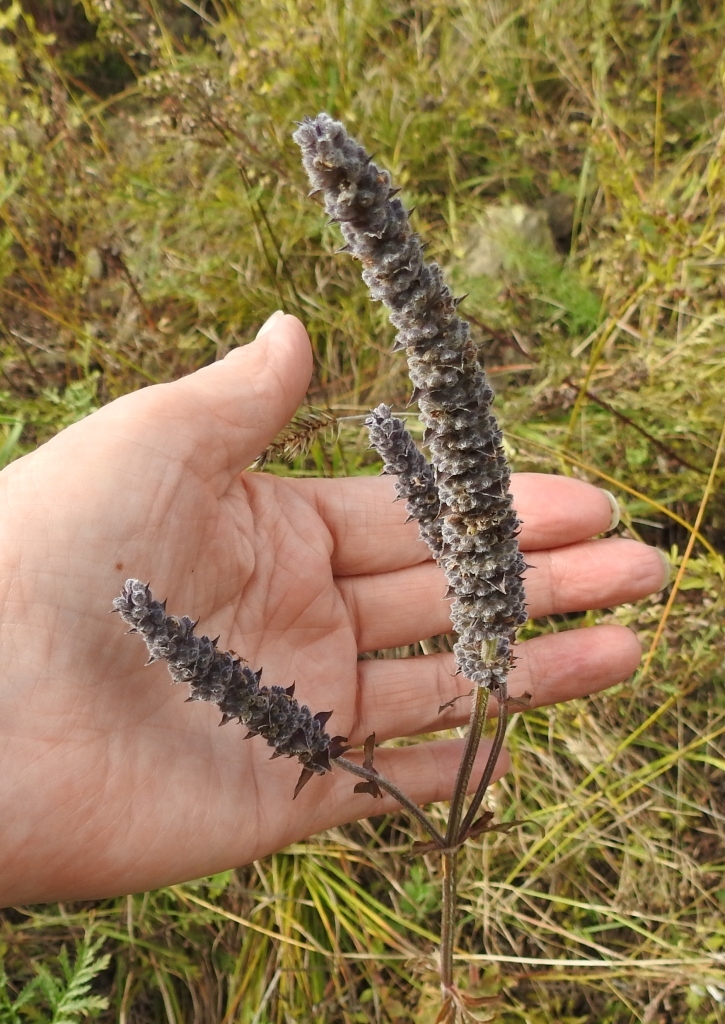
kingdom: Plantae
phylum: Tracheophyta
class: Magnoliopsida
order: Lamiales
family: Lamiaceae
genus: Nepeta
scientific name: Nepeta multifida
